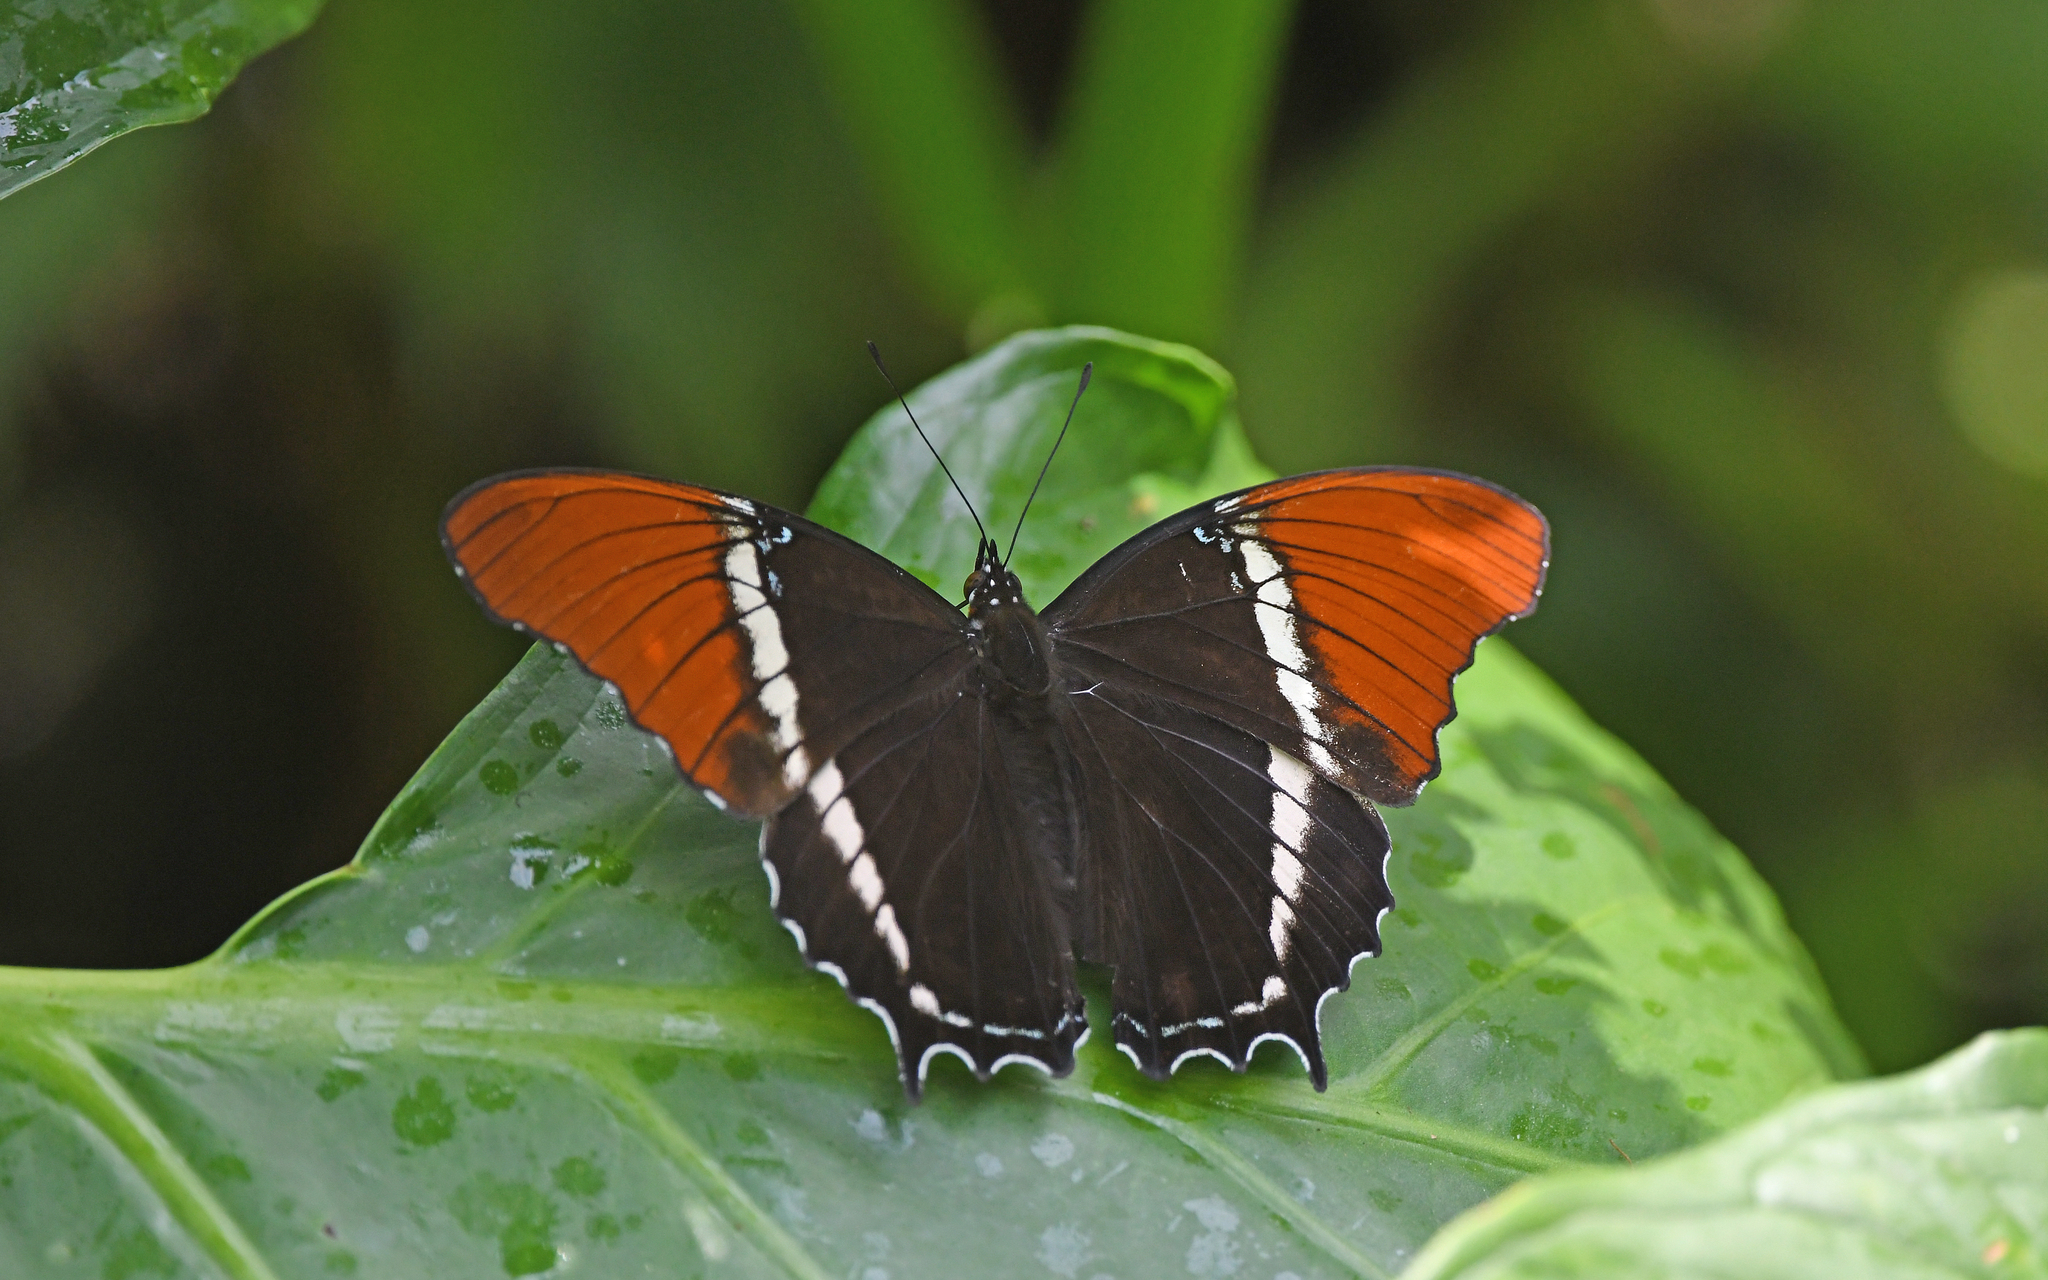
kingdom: Animalia
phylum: Arthropoda
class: Insecta
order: Lepidoptera
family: Nymphalidae
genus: Siproeta
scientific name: Siproeta epaphus
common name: Rusty-tipped page
